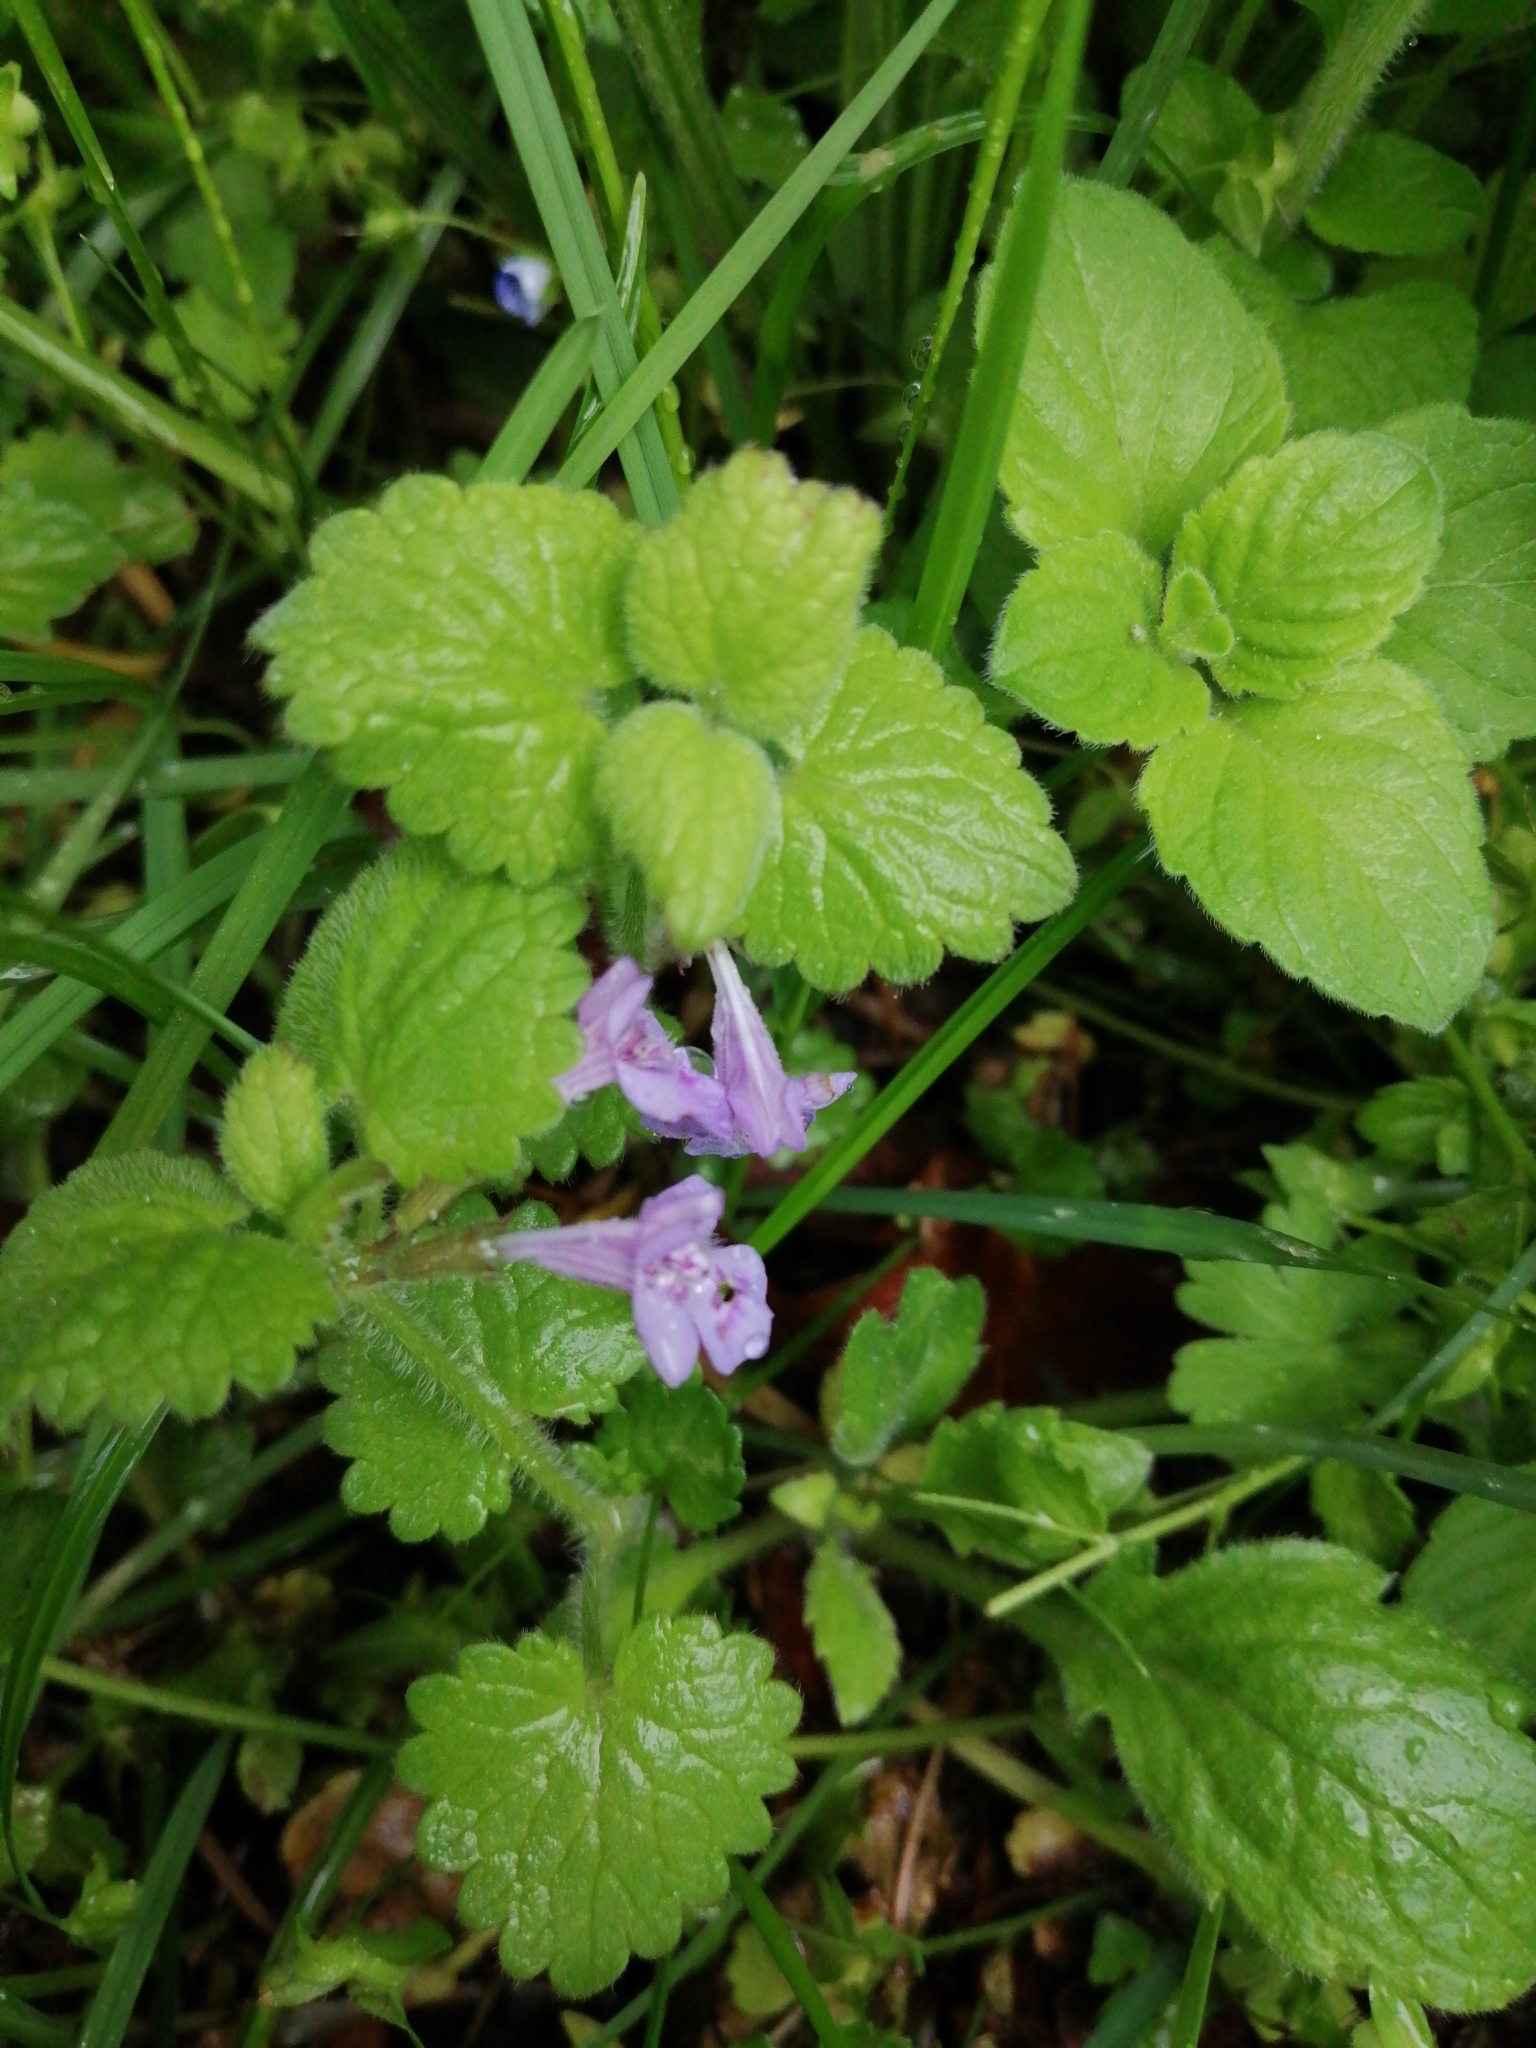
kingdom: Plantae
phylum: Tracheophyta
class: Magnoliopsida
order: Lamiales
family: Lamiaceae
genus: Glechoma
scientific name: Glechoma hederacea
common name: Ground ivy
